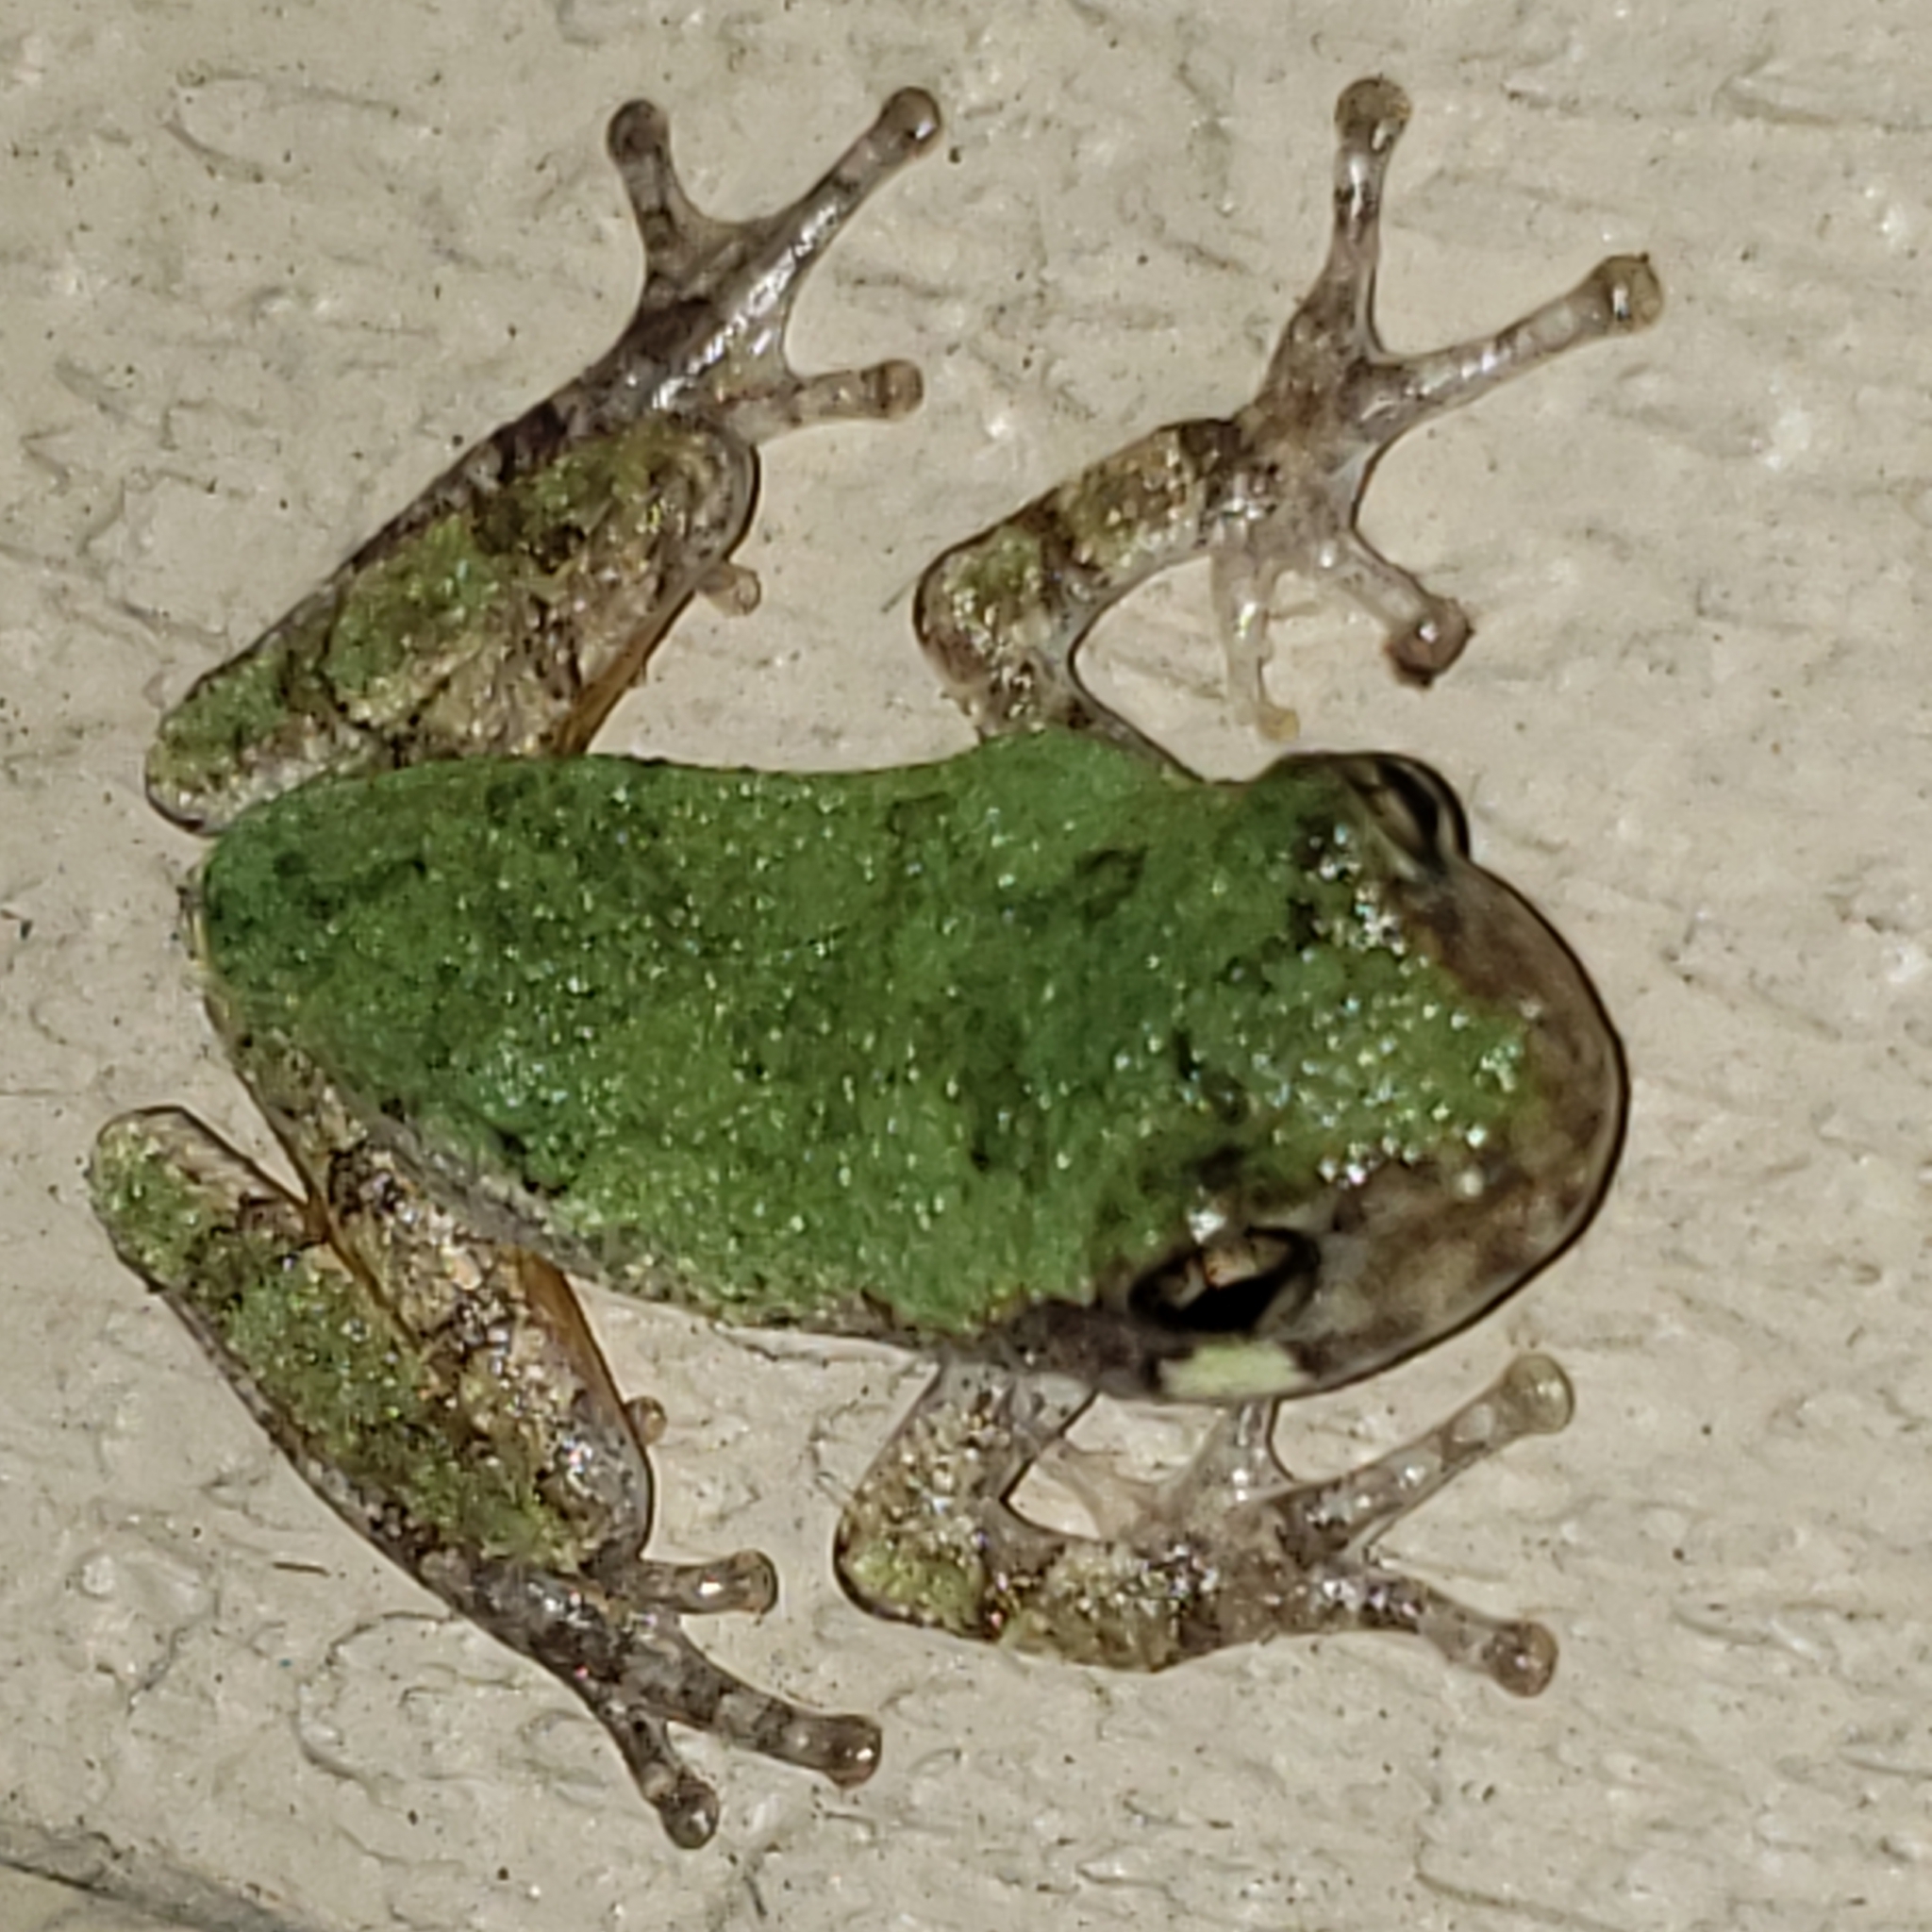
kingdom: Animalia
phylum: Chordata
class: Amphibia
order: Anura
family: Hylidae
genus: Hyla
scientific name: Hyla
